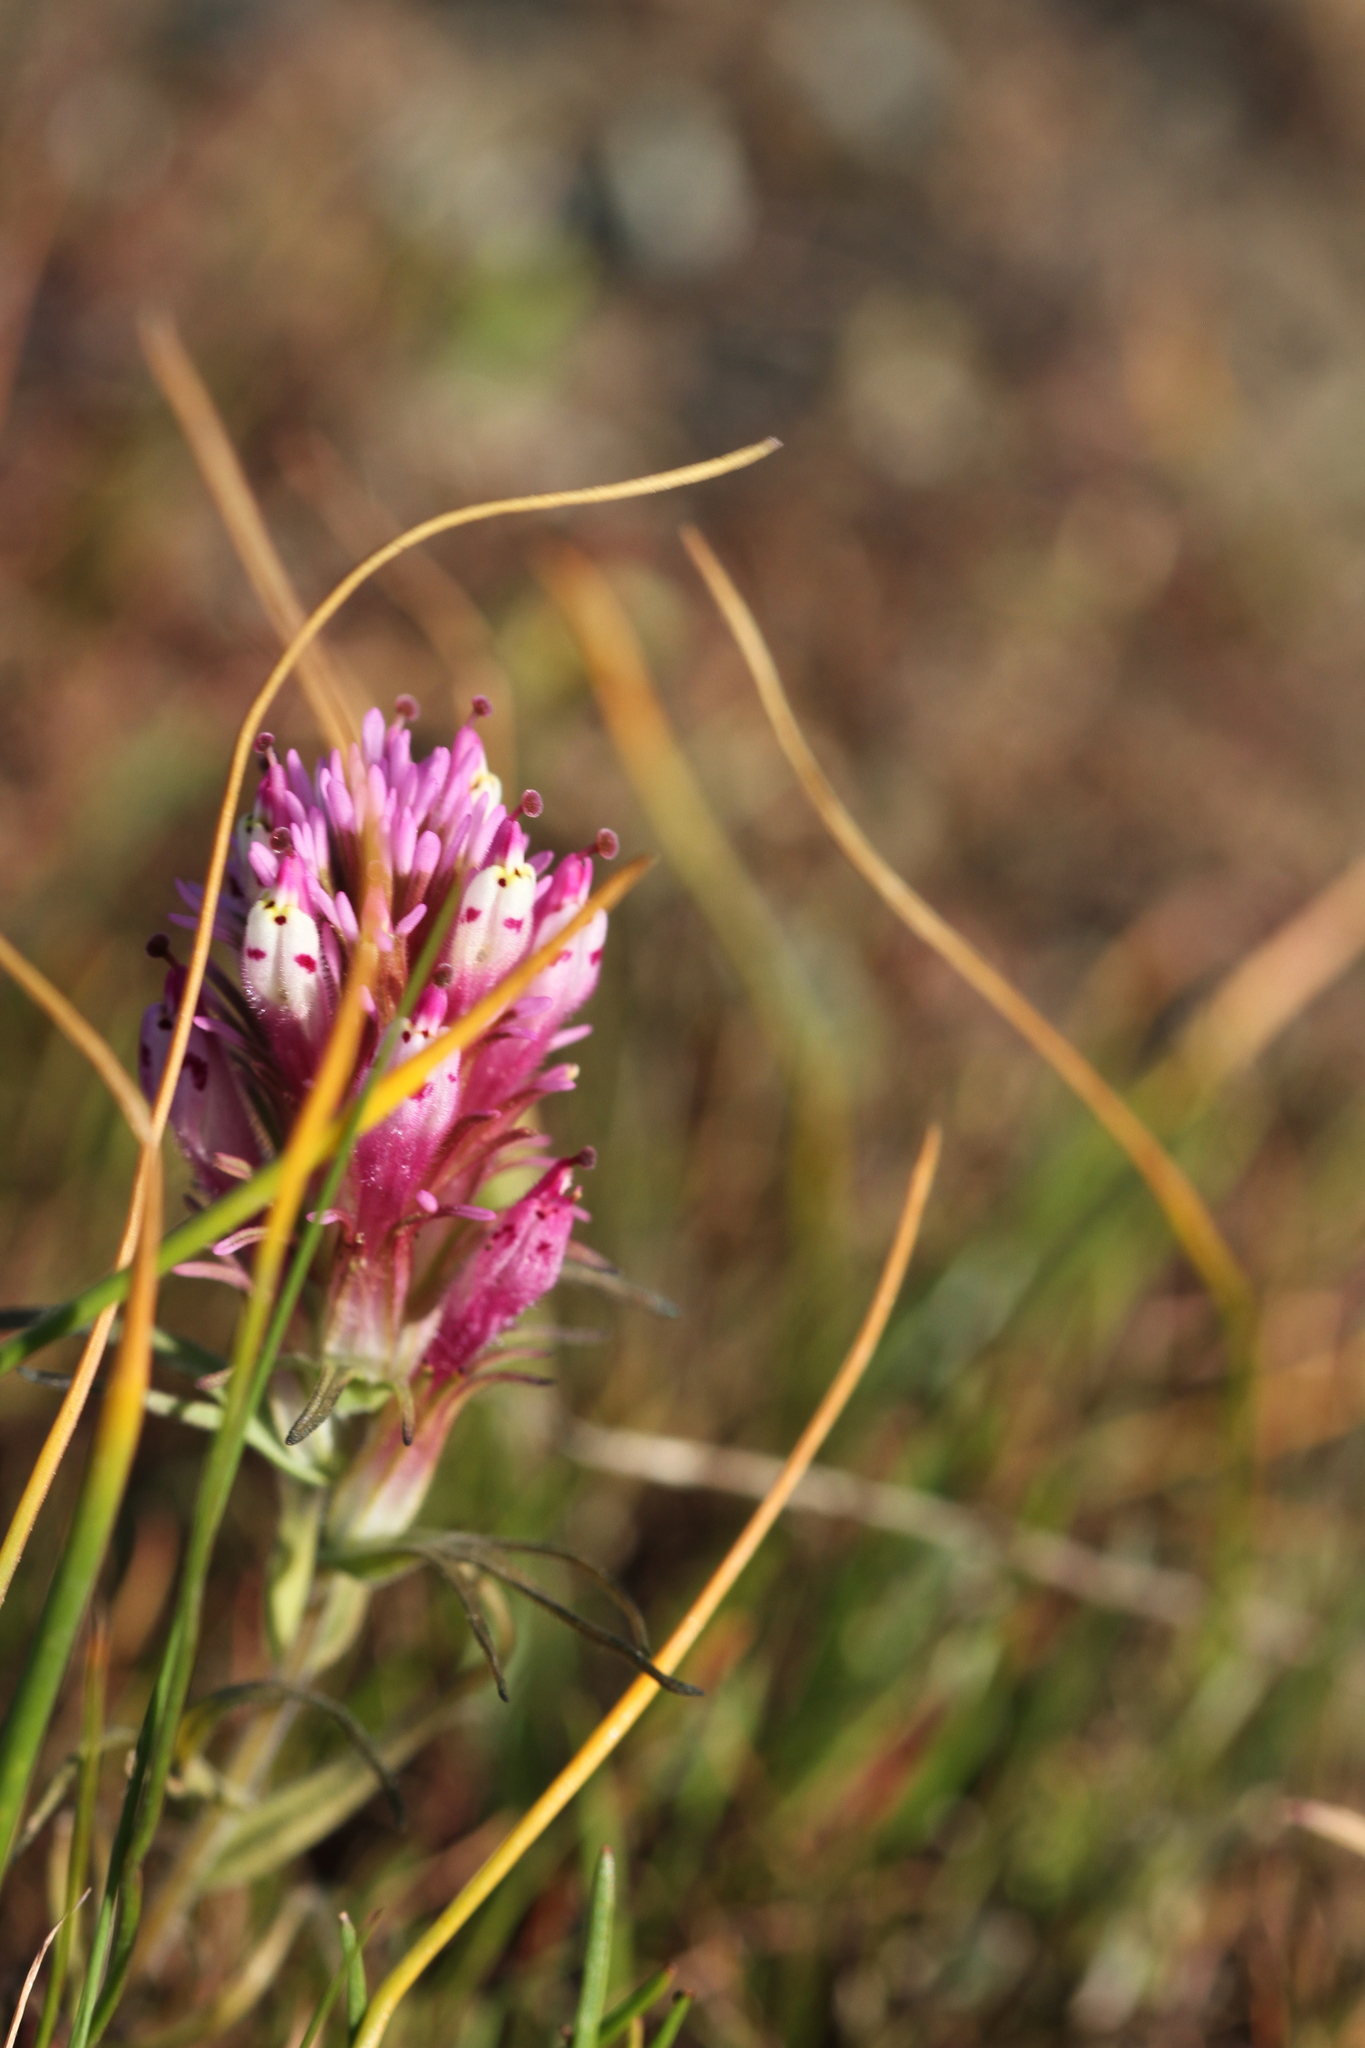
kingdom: Plantae
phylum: Tracheophyta
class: Magnoliopsida
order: Lamiales
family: Orobanchaceae
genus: Castilleja
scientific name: Castilleja densiflora
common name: Dense-flower indian paintbrush
